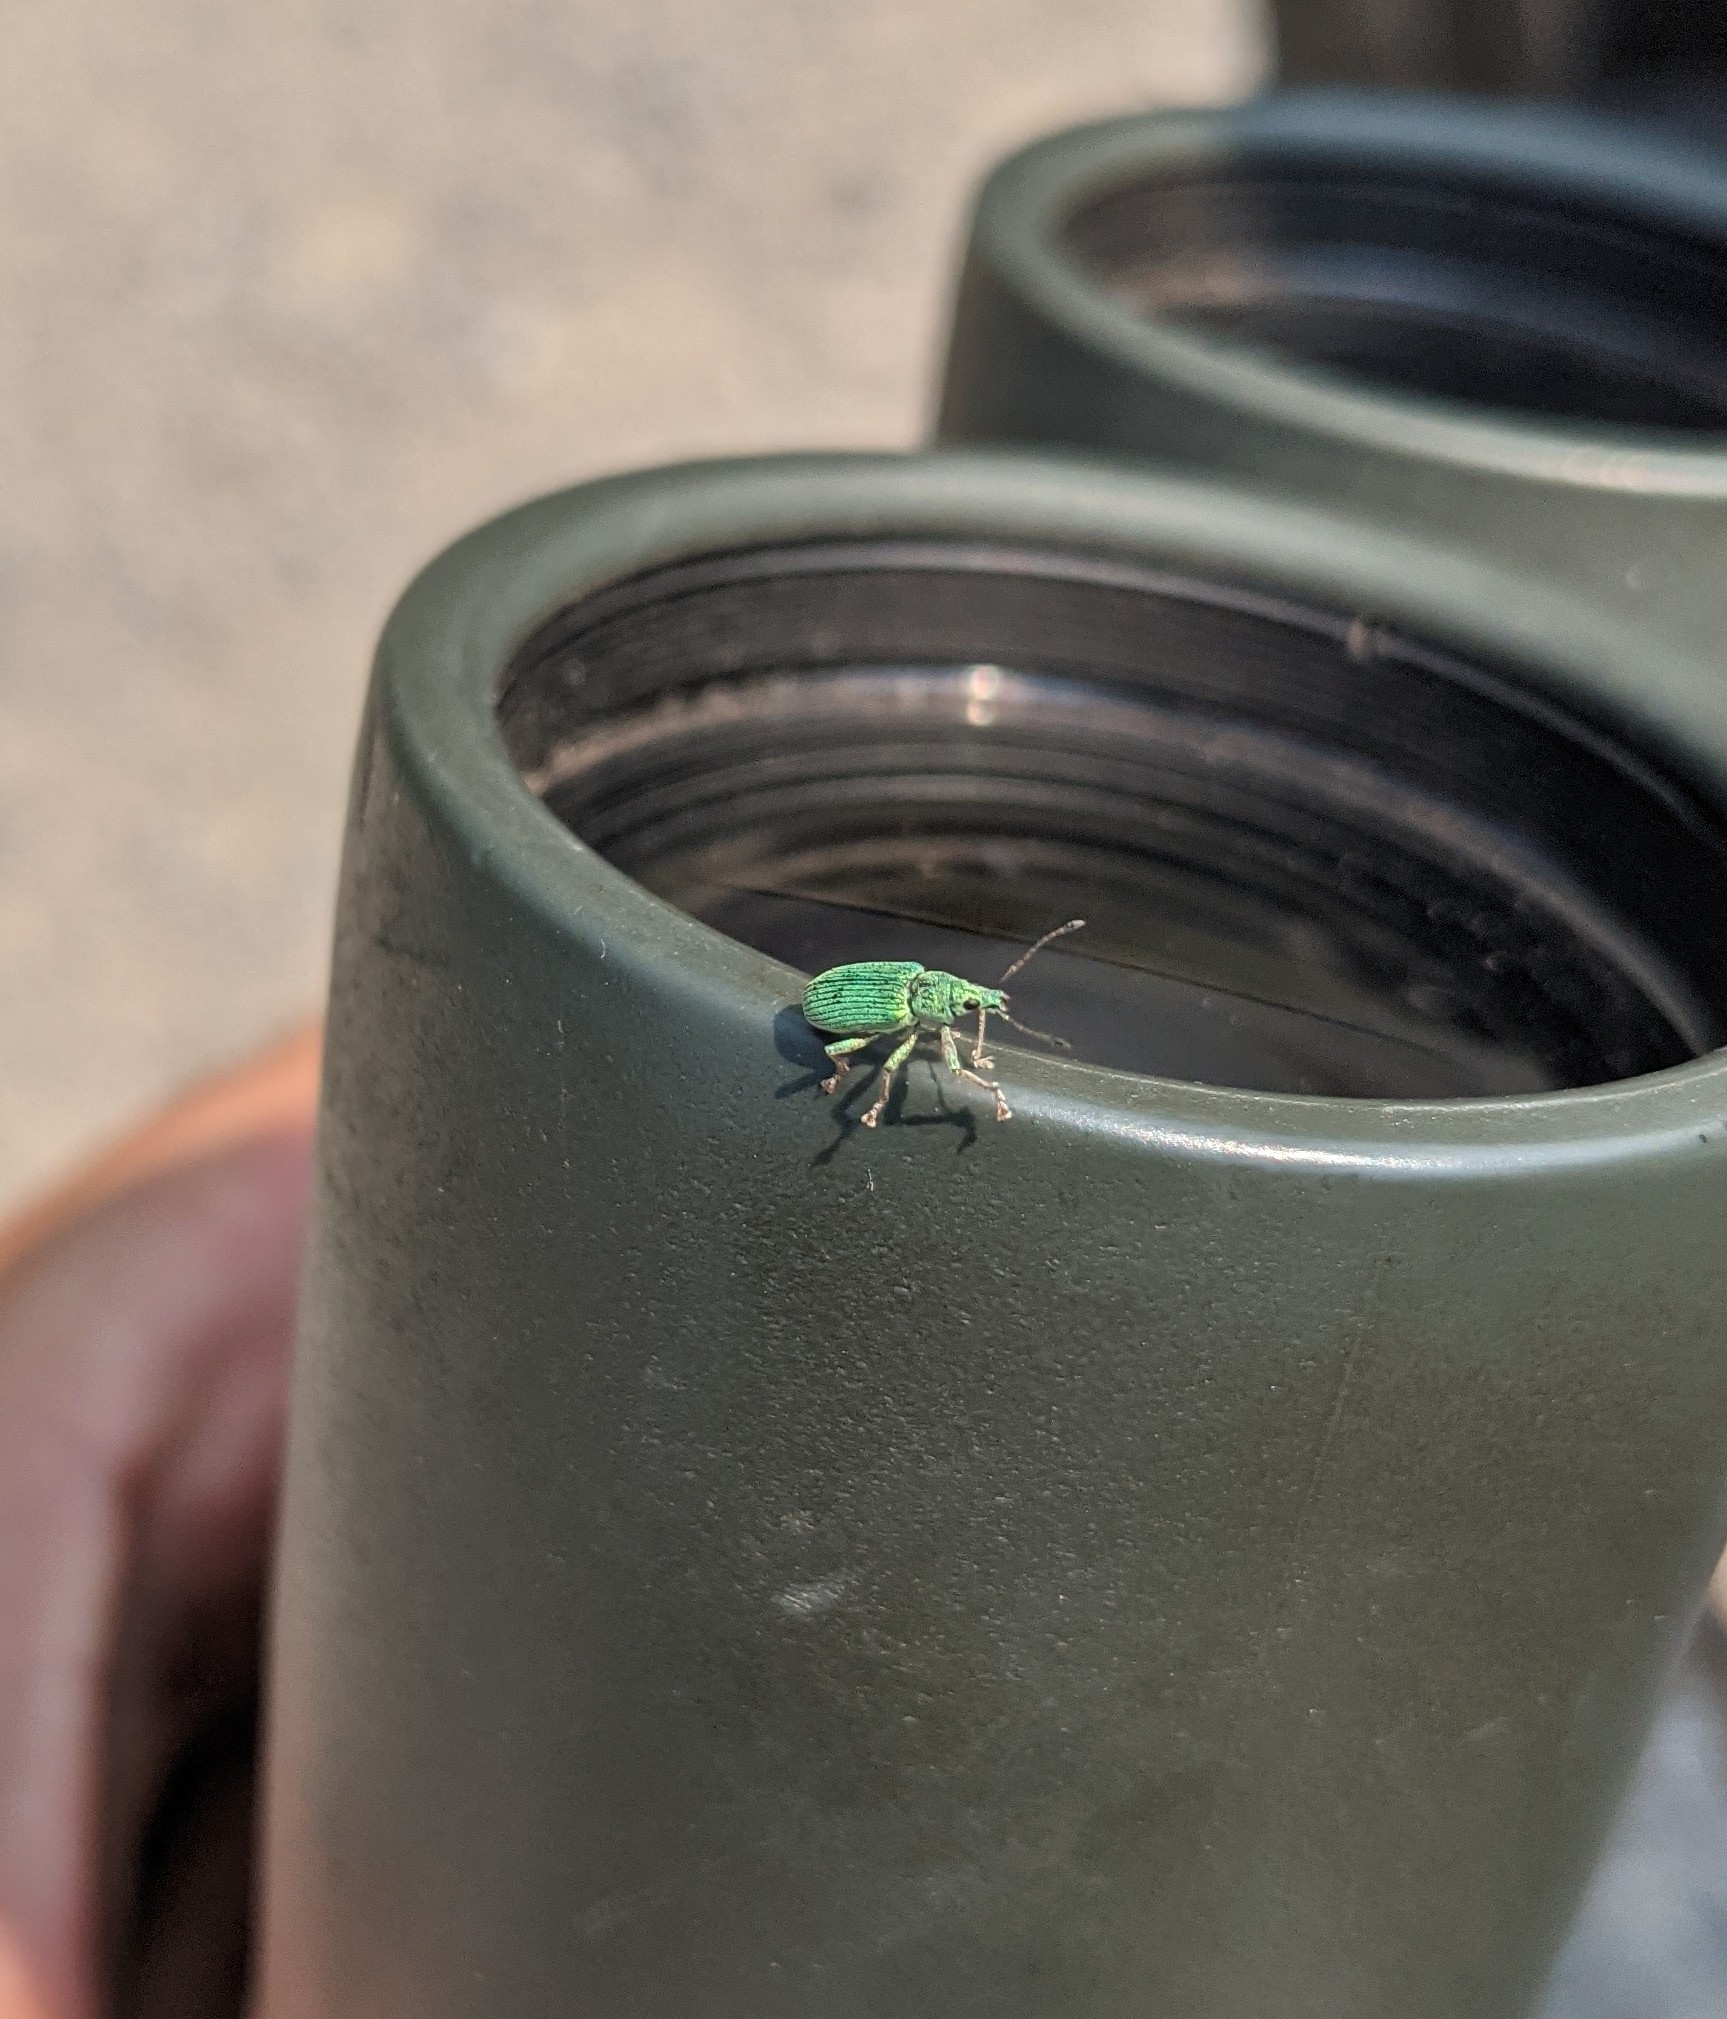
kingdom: Animalia
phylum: Arthropoda
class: Insecta
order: Coleoptera
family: Curculionidae
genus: Polydrusus
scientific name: Polydrusus formosus
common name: Weevil
